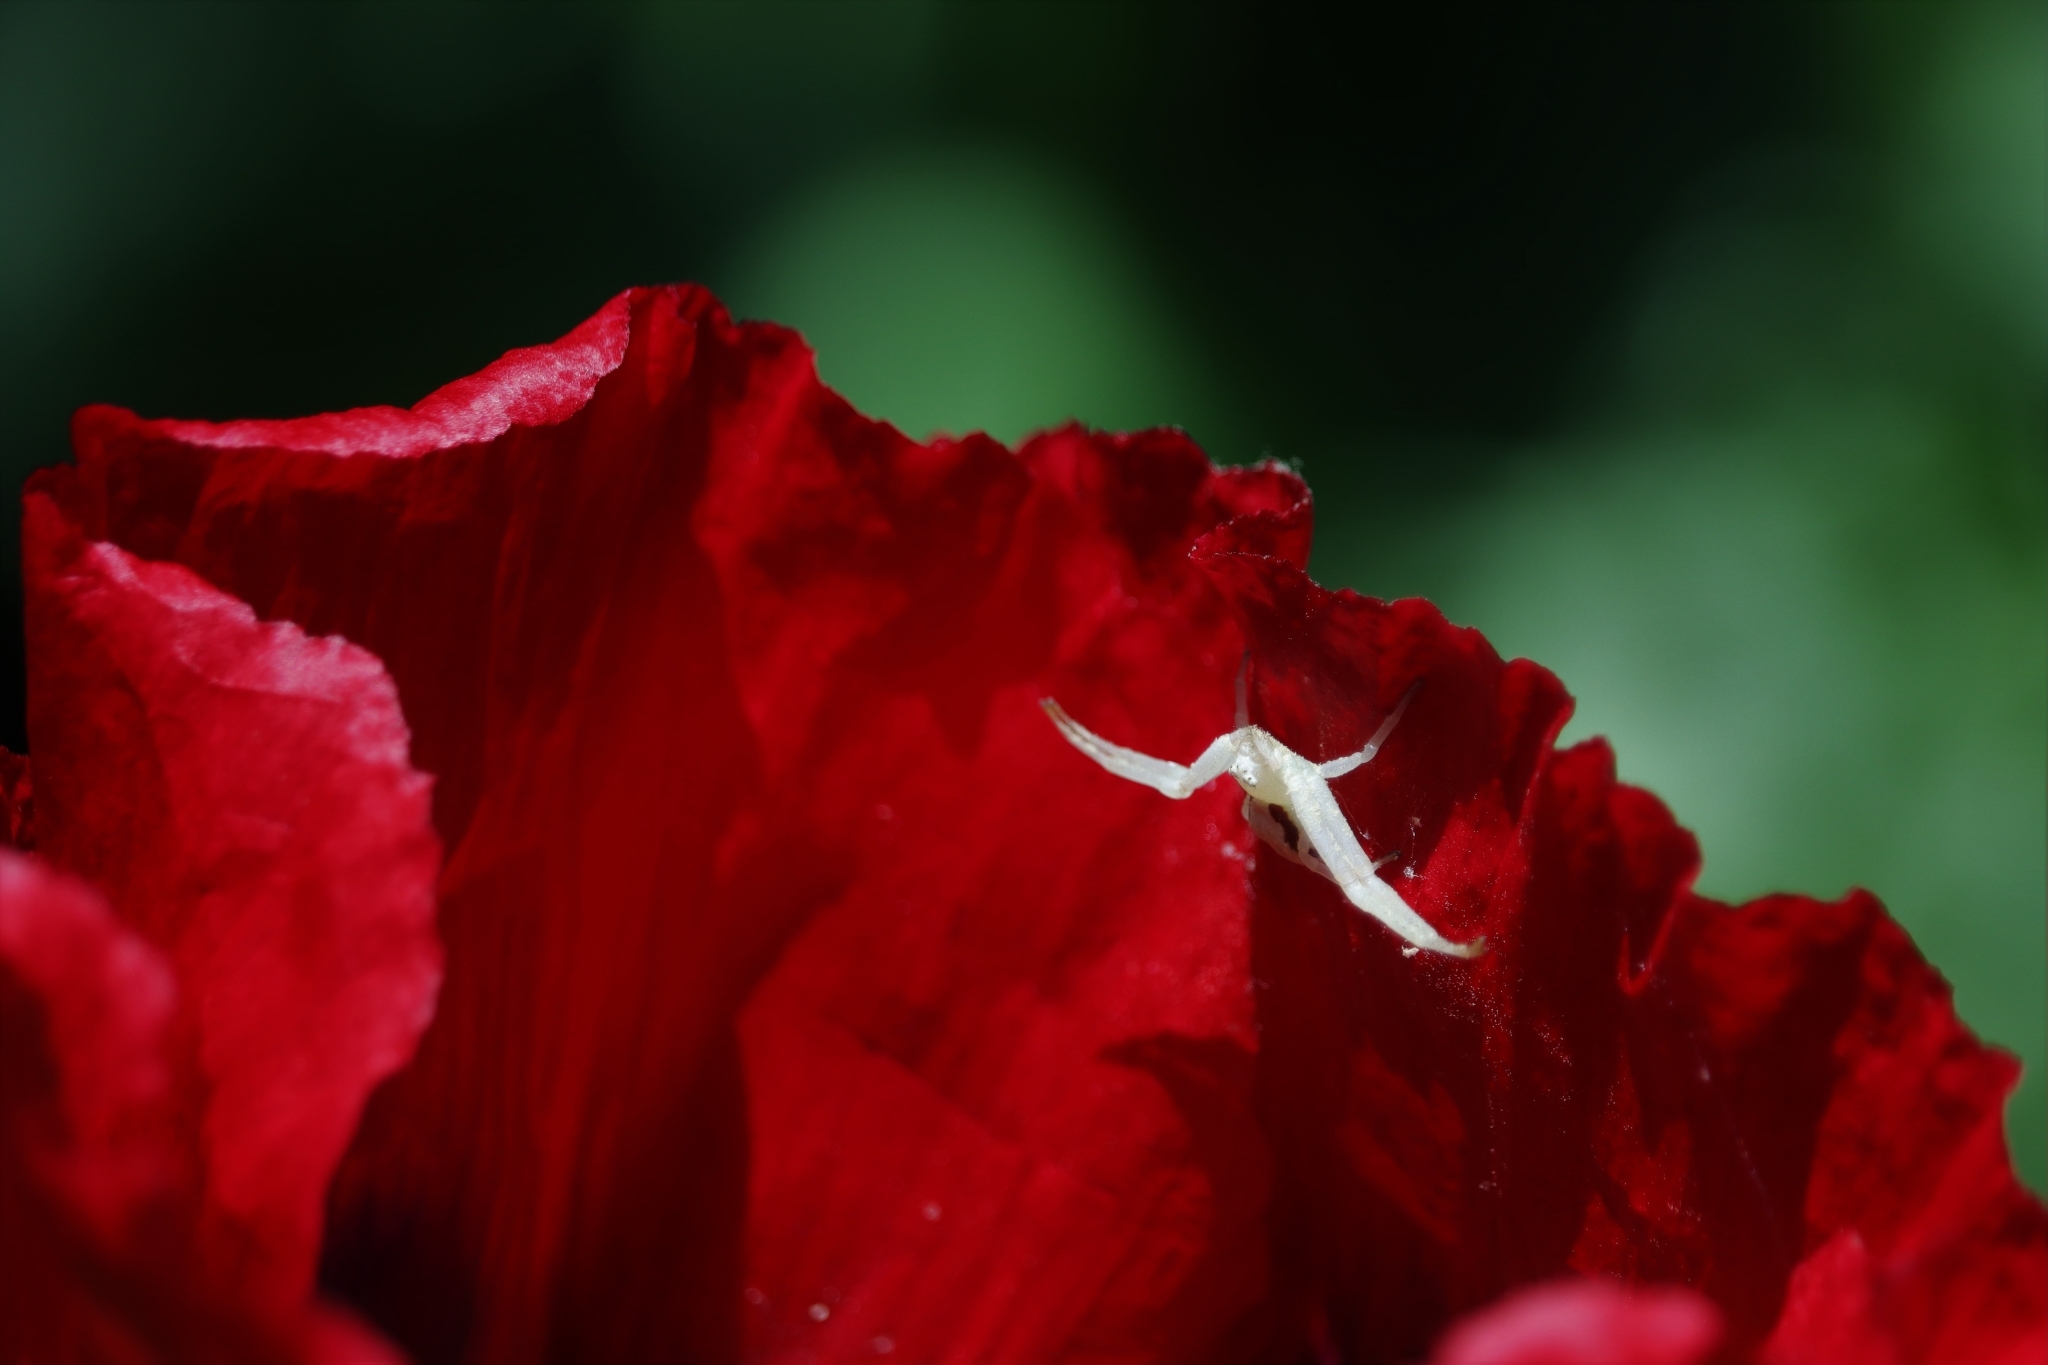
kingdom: Animalia
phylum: Arthropoda
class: Arachnida
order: Araneae
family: Thomisidae
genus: Misumena
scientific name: Misumena vatia
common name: Goldenrod crab spider
